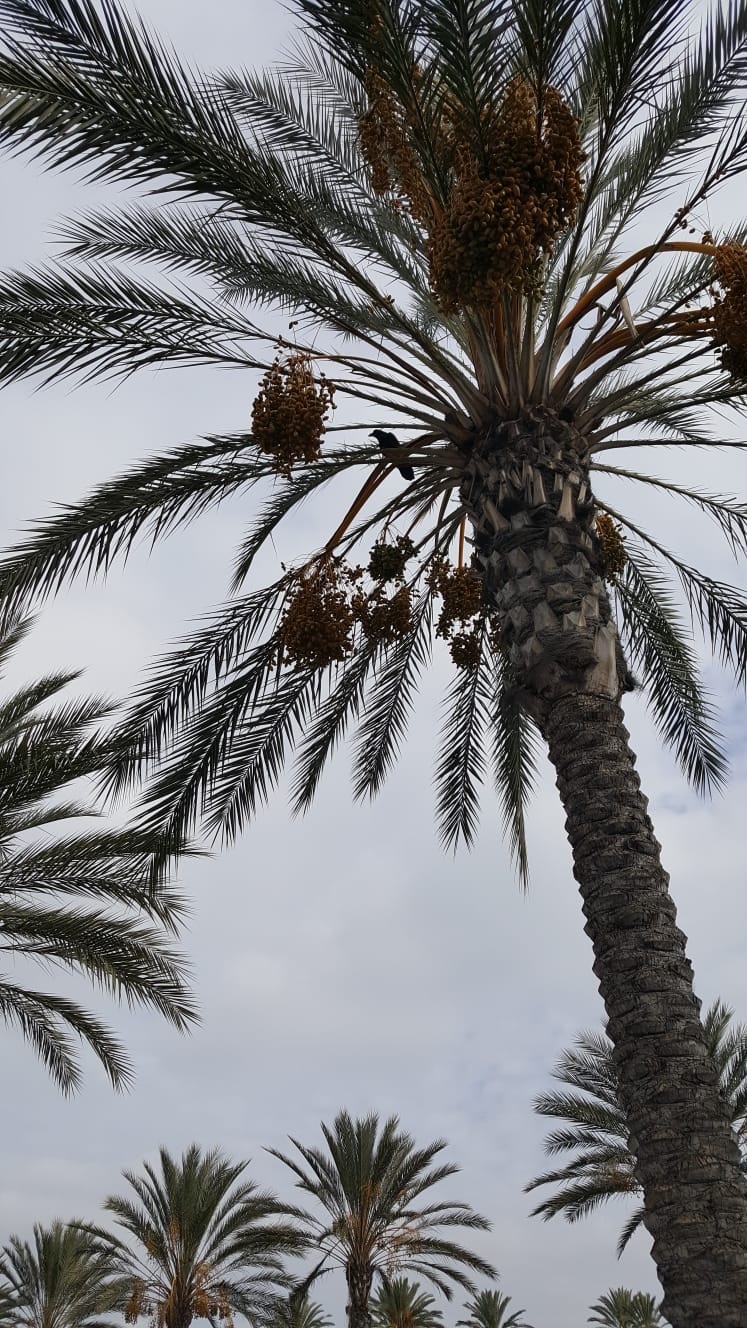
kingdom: Animalia
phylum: Chordata
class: Aves
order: Passeriformes
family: Corvidae
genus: Corvus
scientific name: Corvus corax
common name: Common raven
